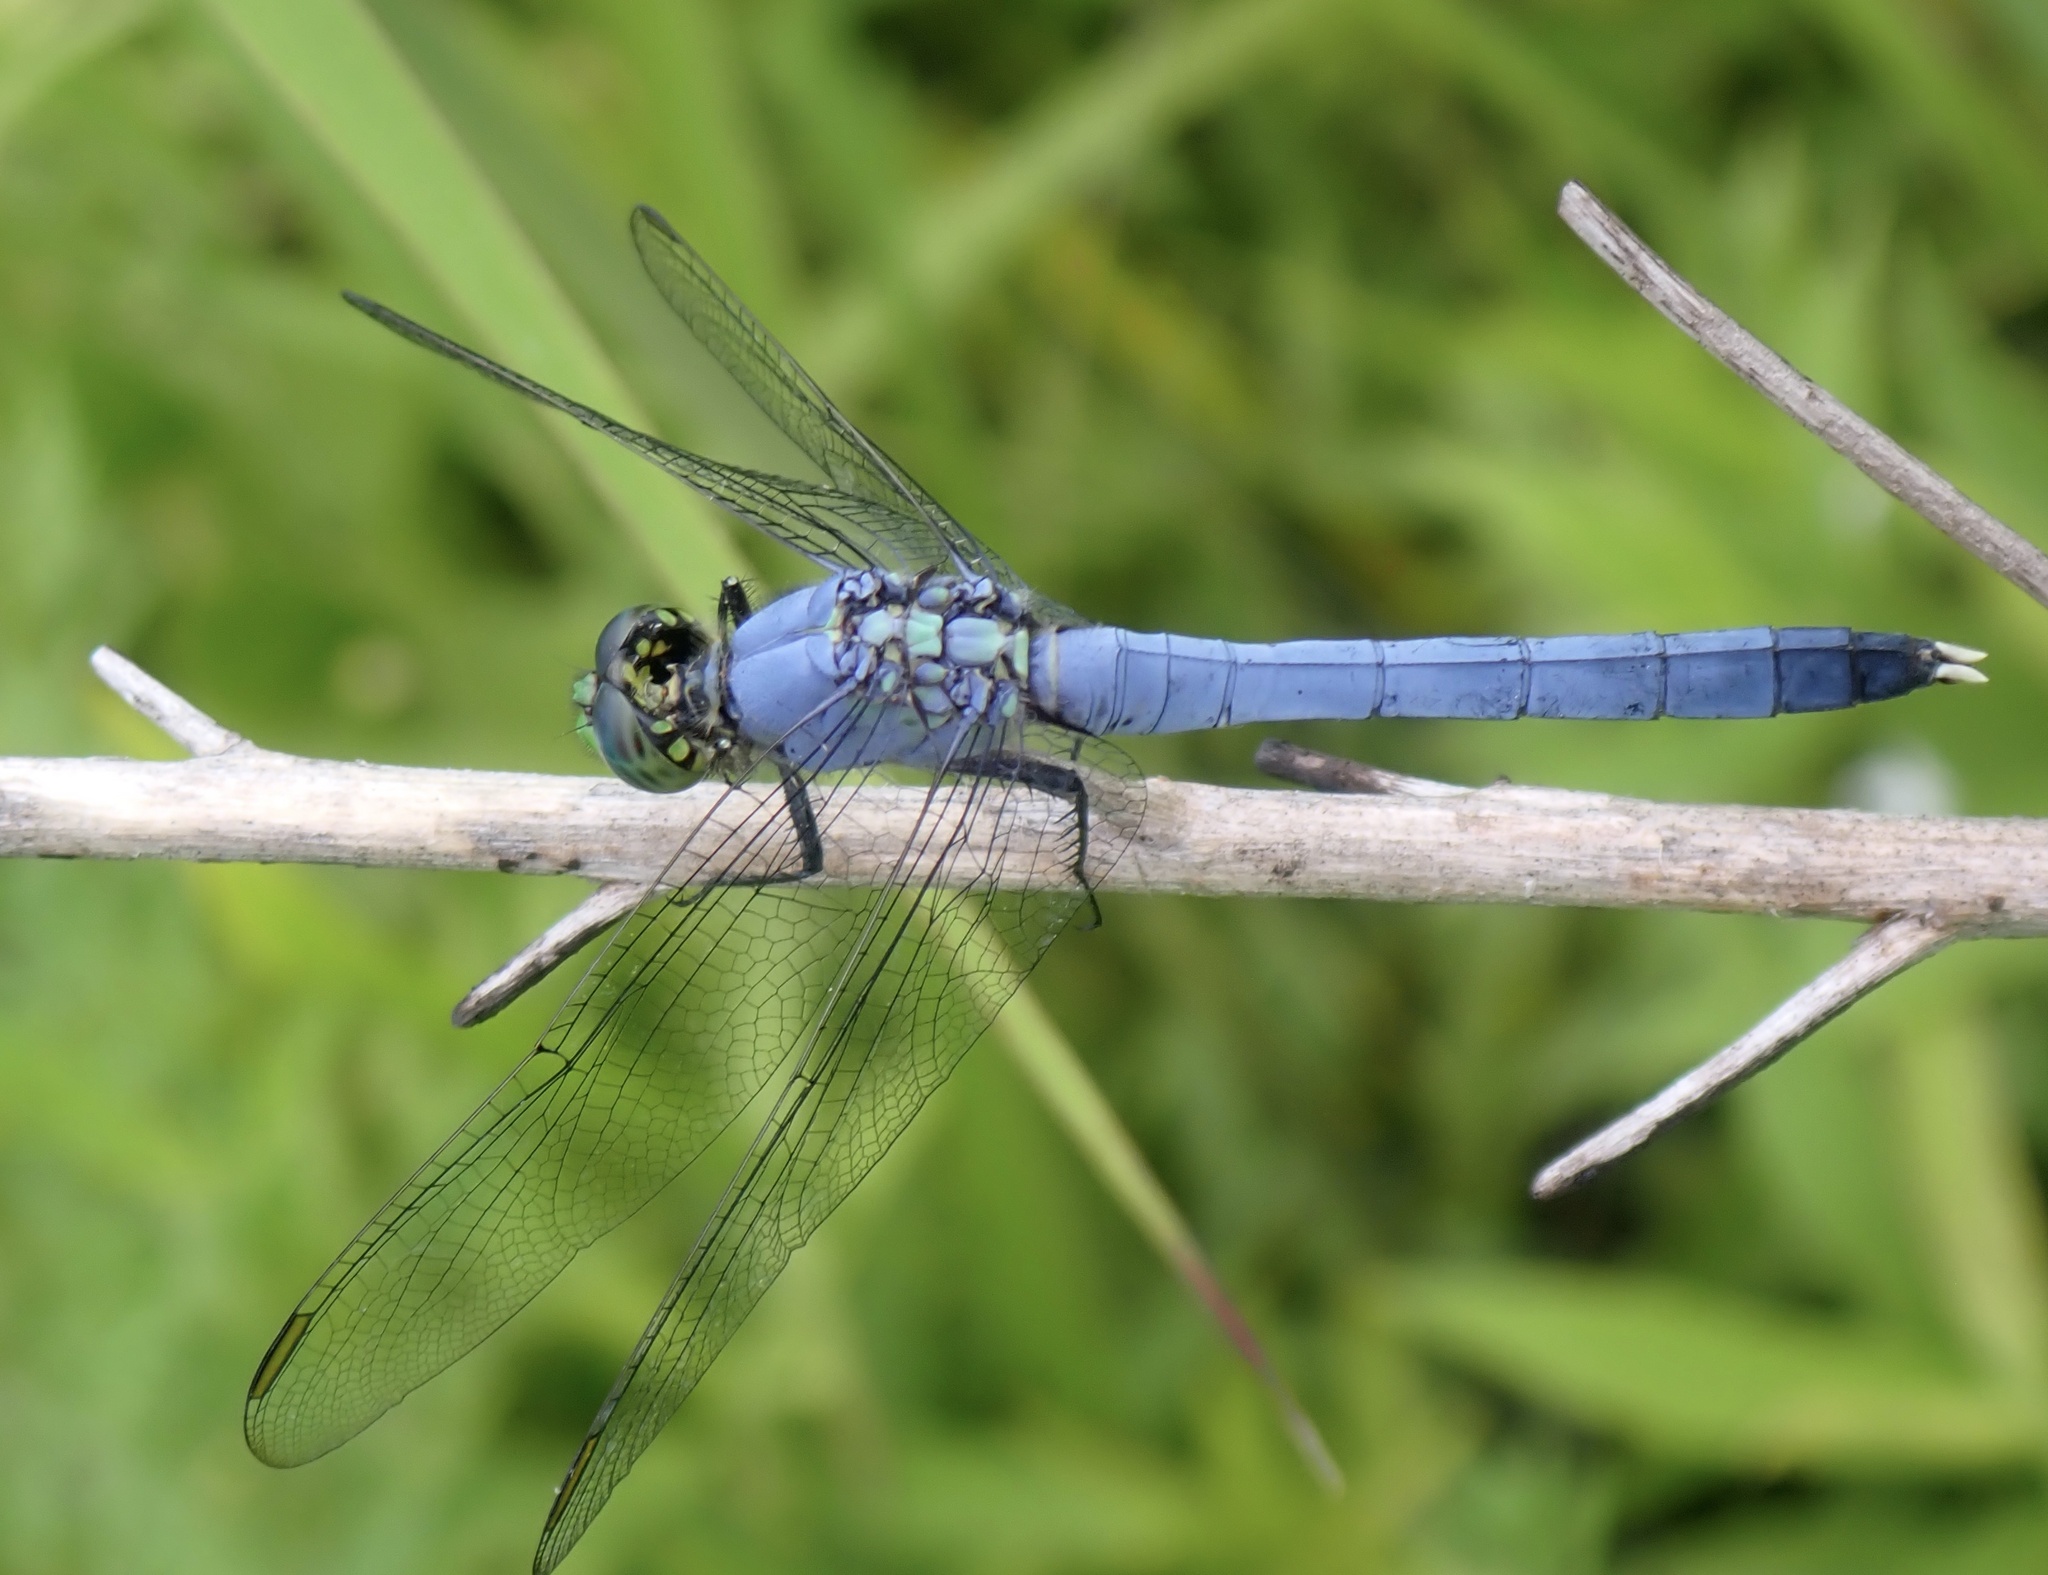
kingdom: Animalia
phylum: Arthropoda
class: Insecta
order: Odonata
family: Libellulidae
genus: Erythemis
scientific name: Erythemis simplicicollis
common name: Eastern pondhawk
